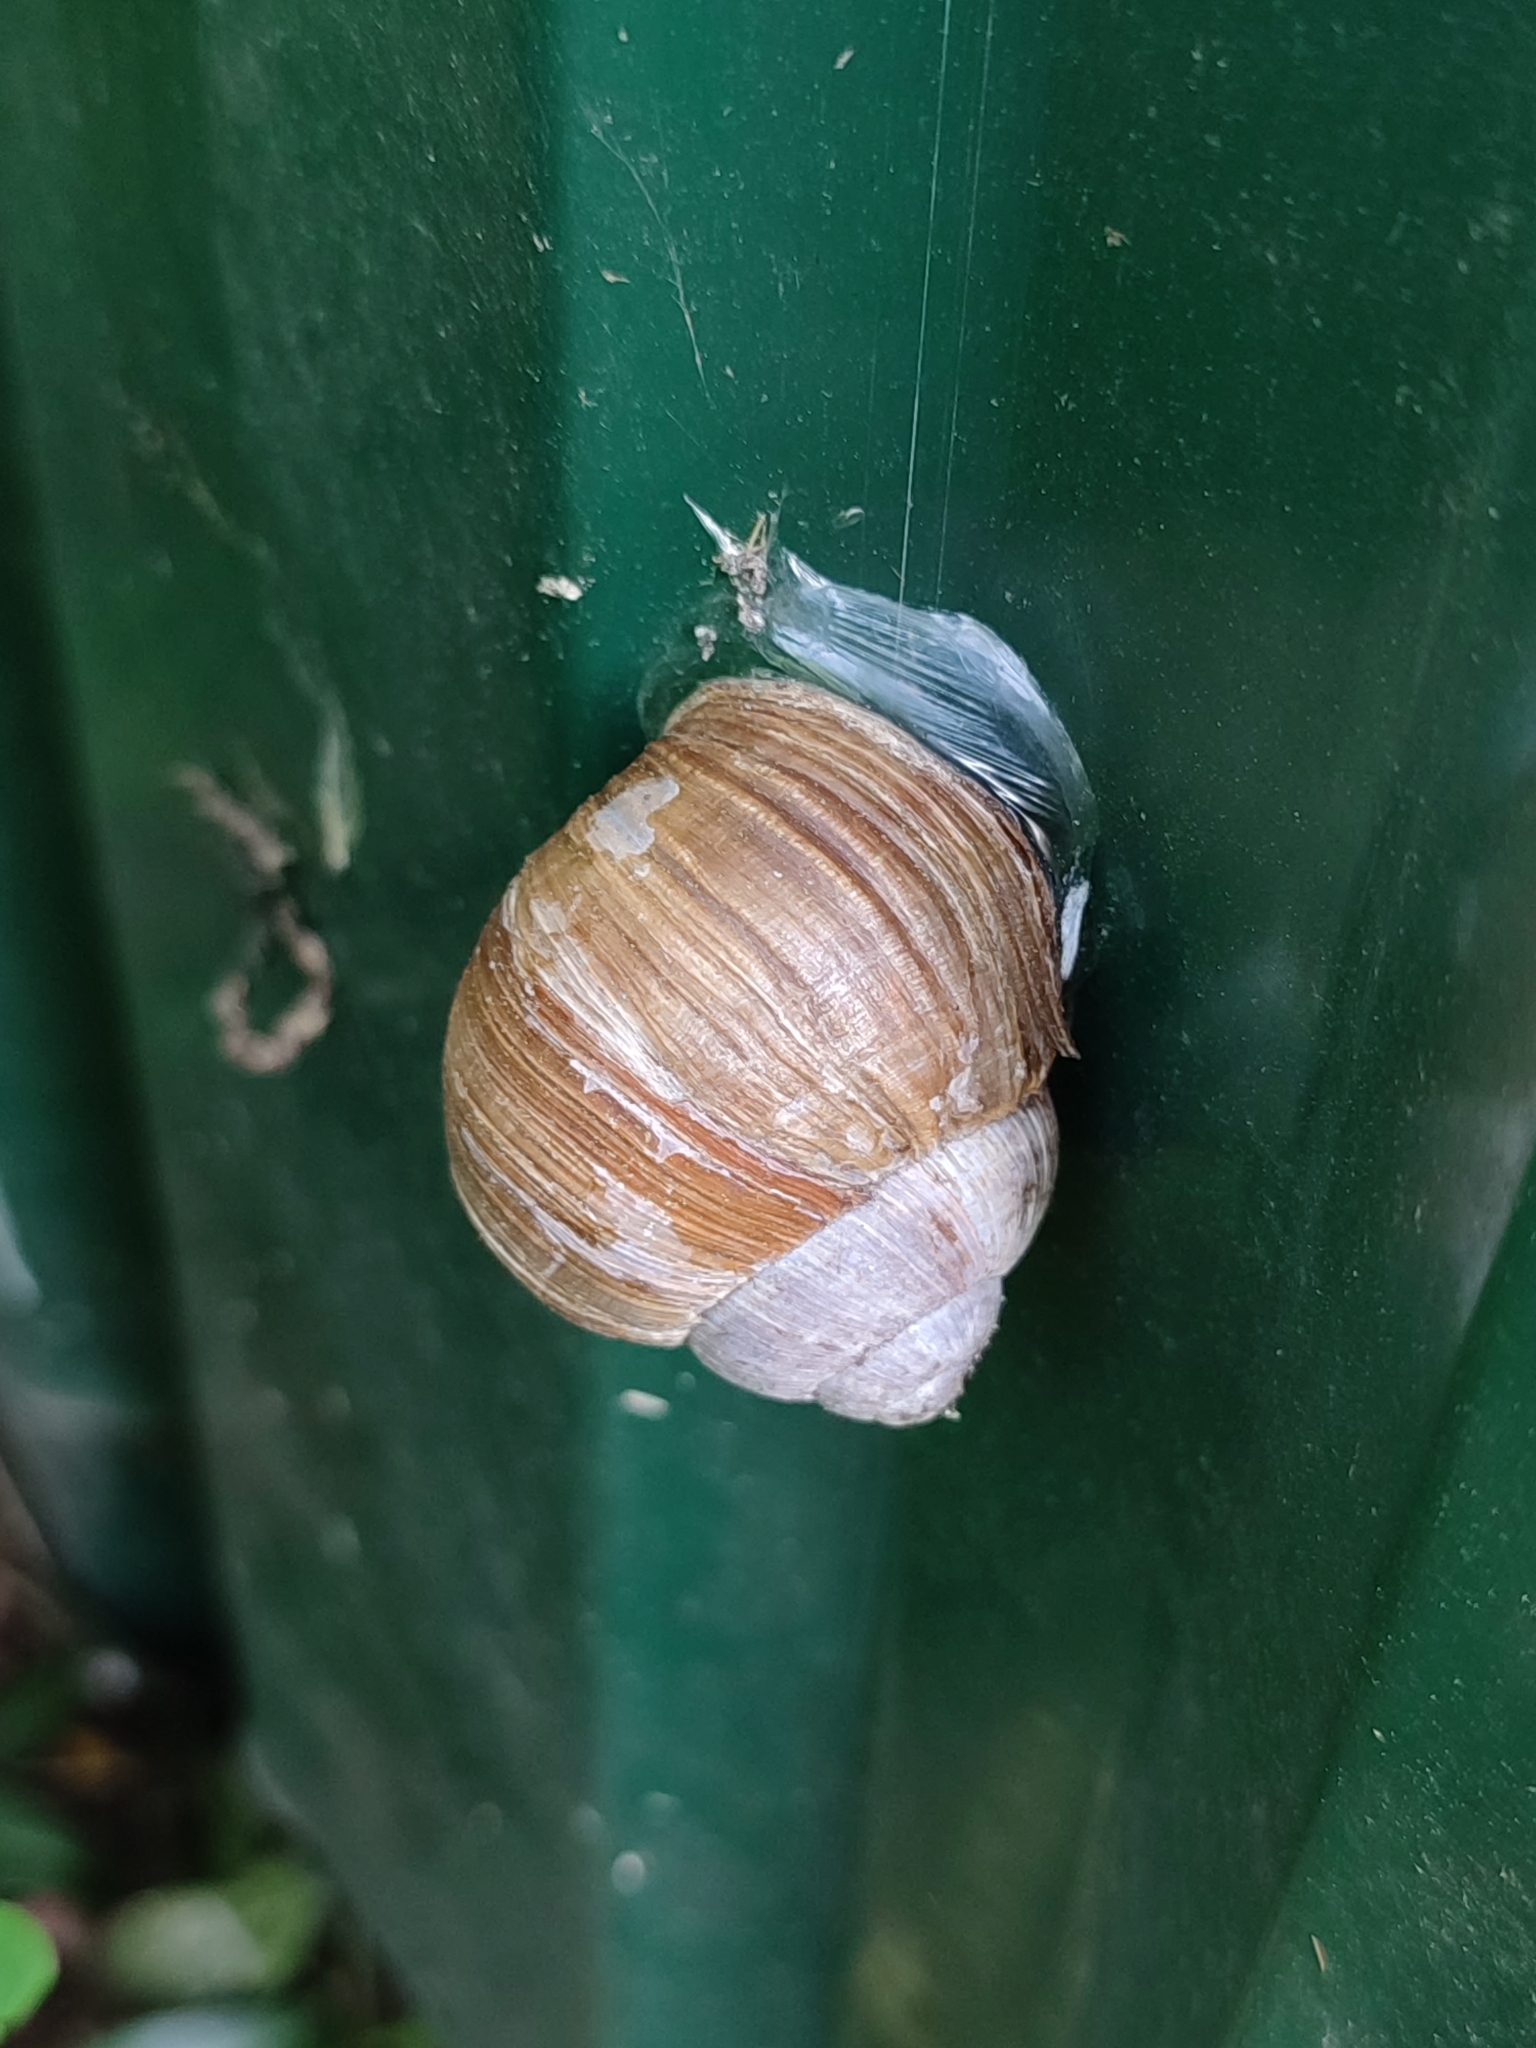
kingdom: Animalia
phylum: Mollusca
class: Gastropoda
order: Stylommatophora
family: Helicidae
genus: Helix
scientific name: Helix pomatia
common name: Roman snail
